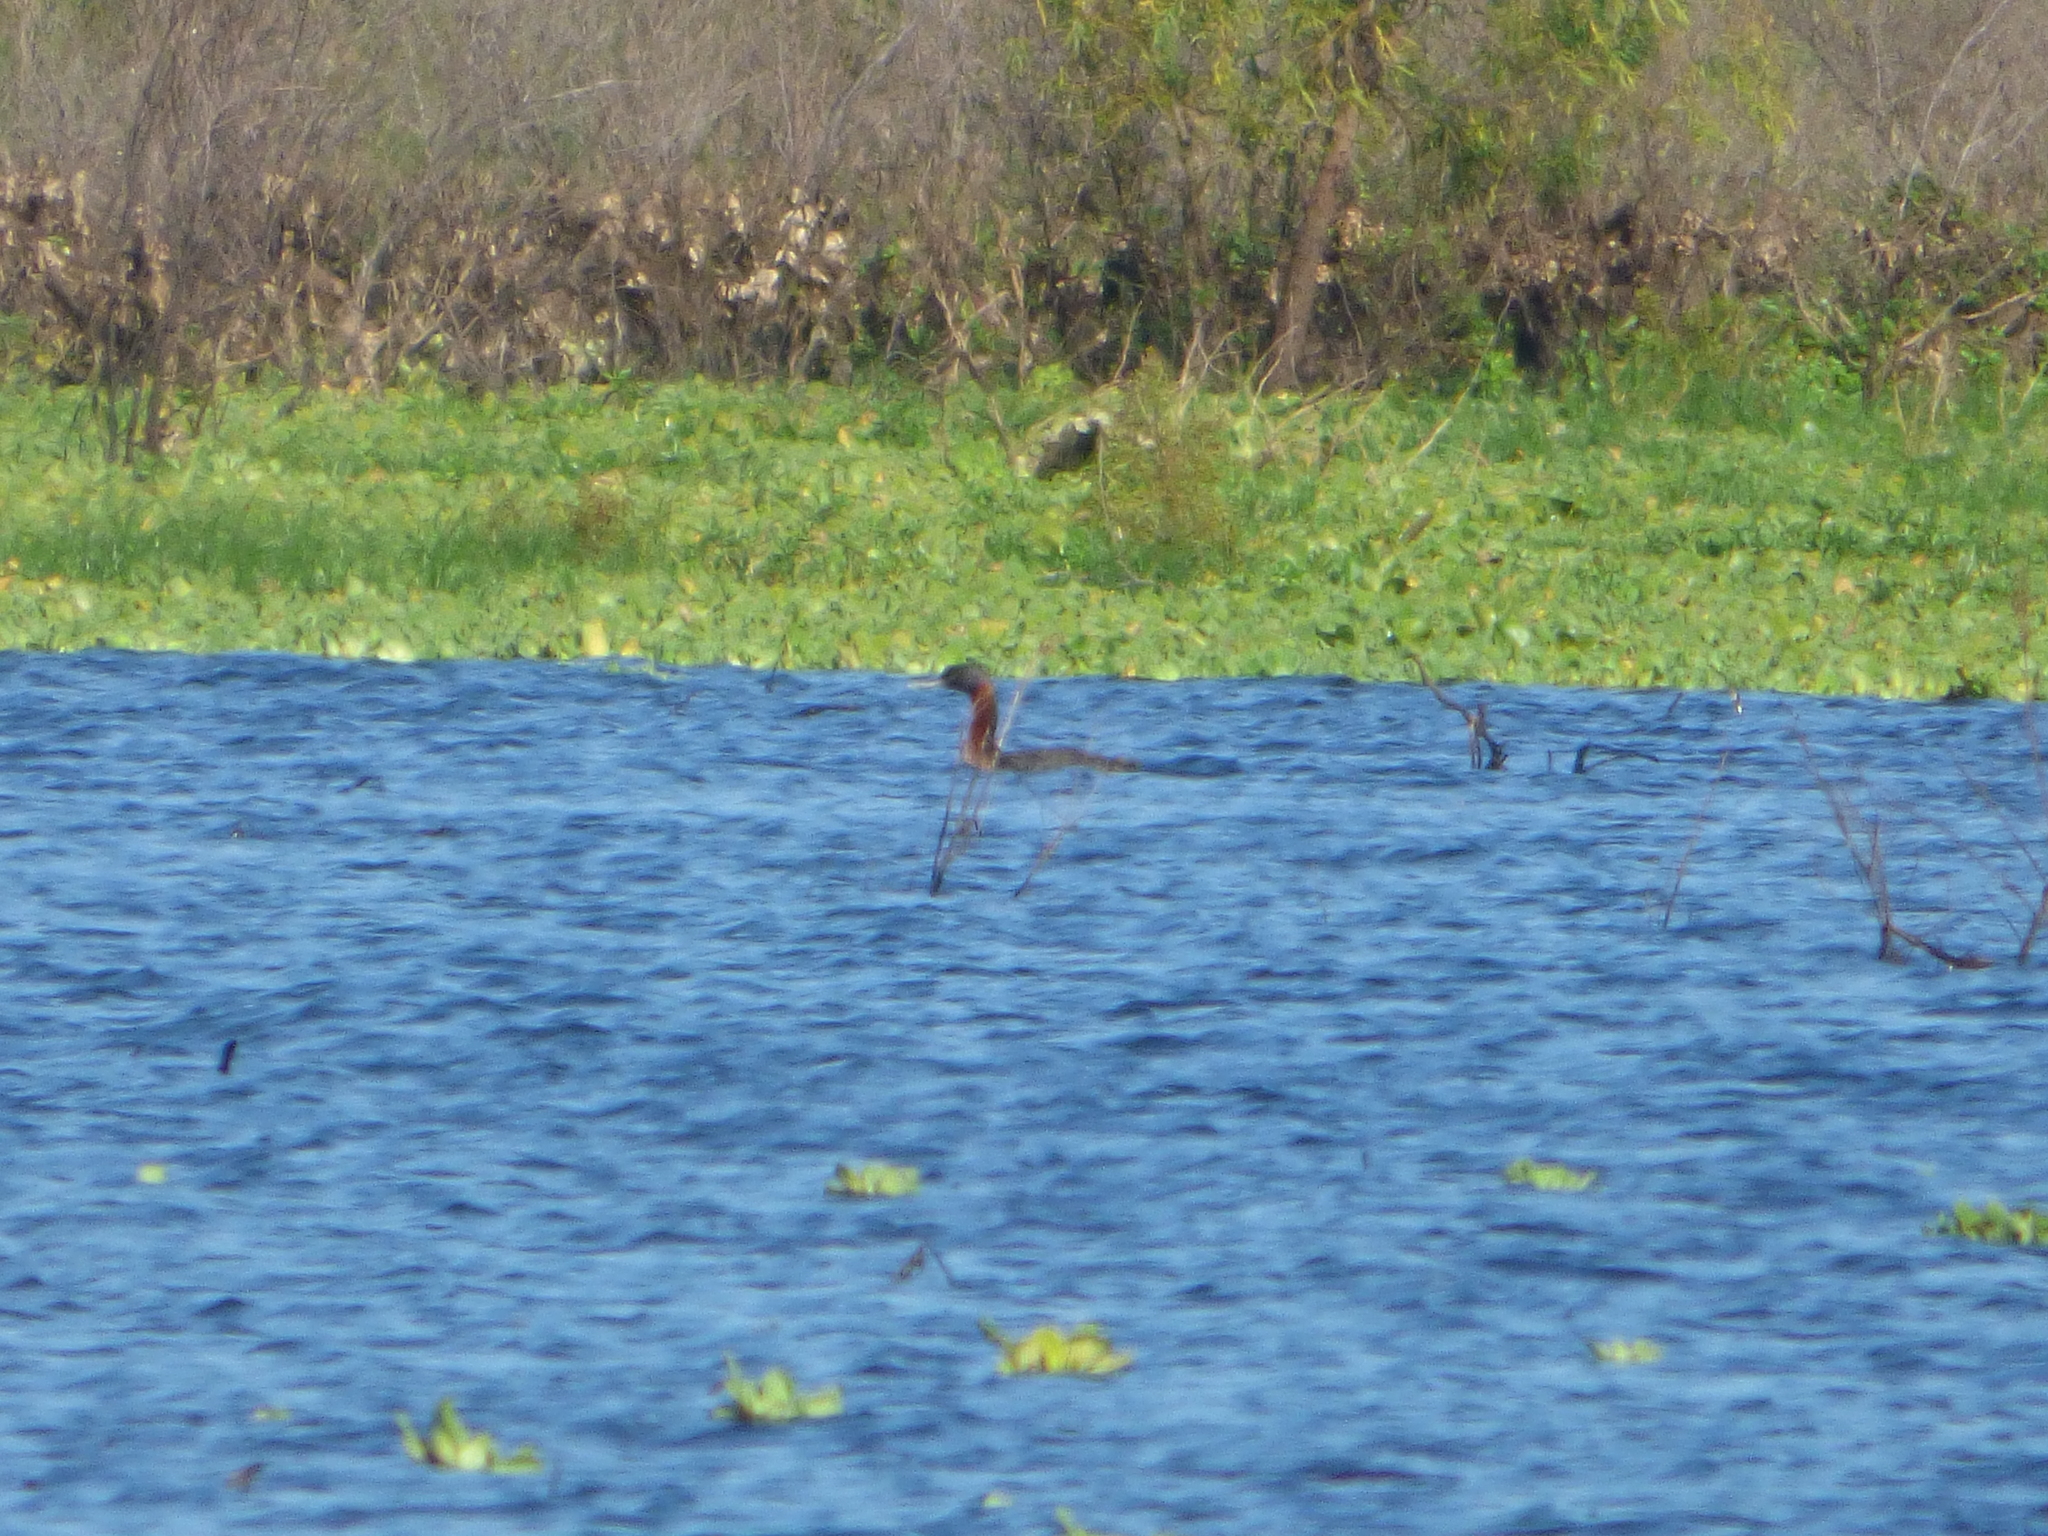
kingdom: Animalia
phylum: Chordata
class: Aves
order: Podicipediformes
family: Podicipedidae
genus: Podiceps
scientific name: Podiceps major
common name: Great grebe
